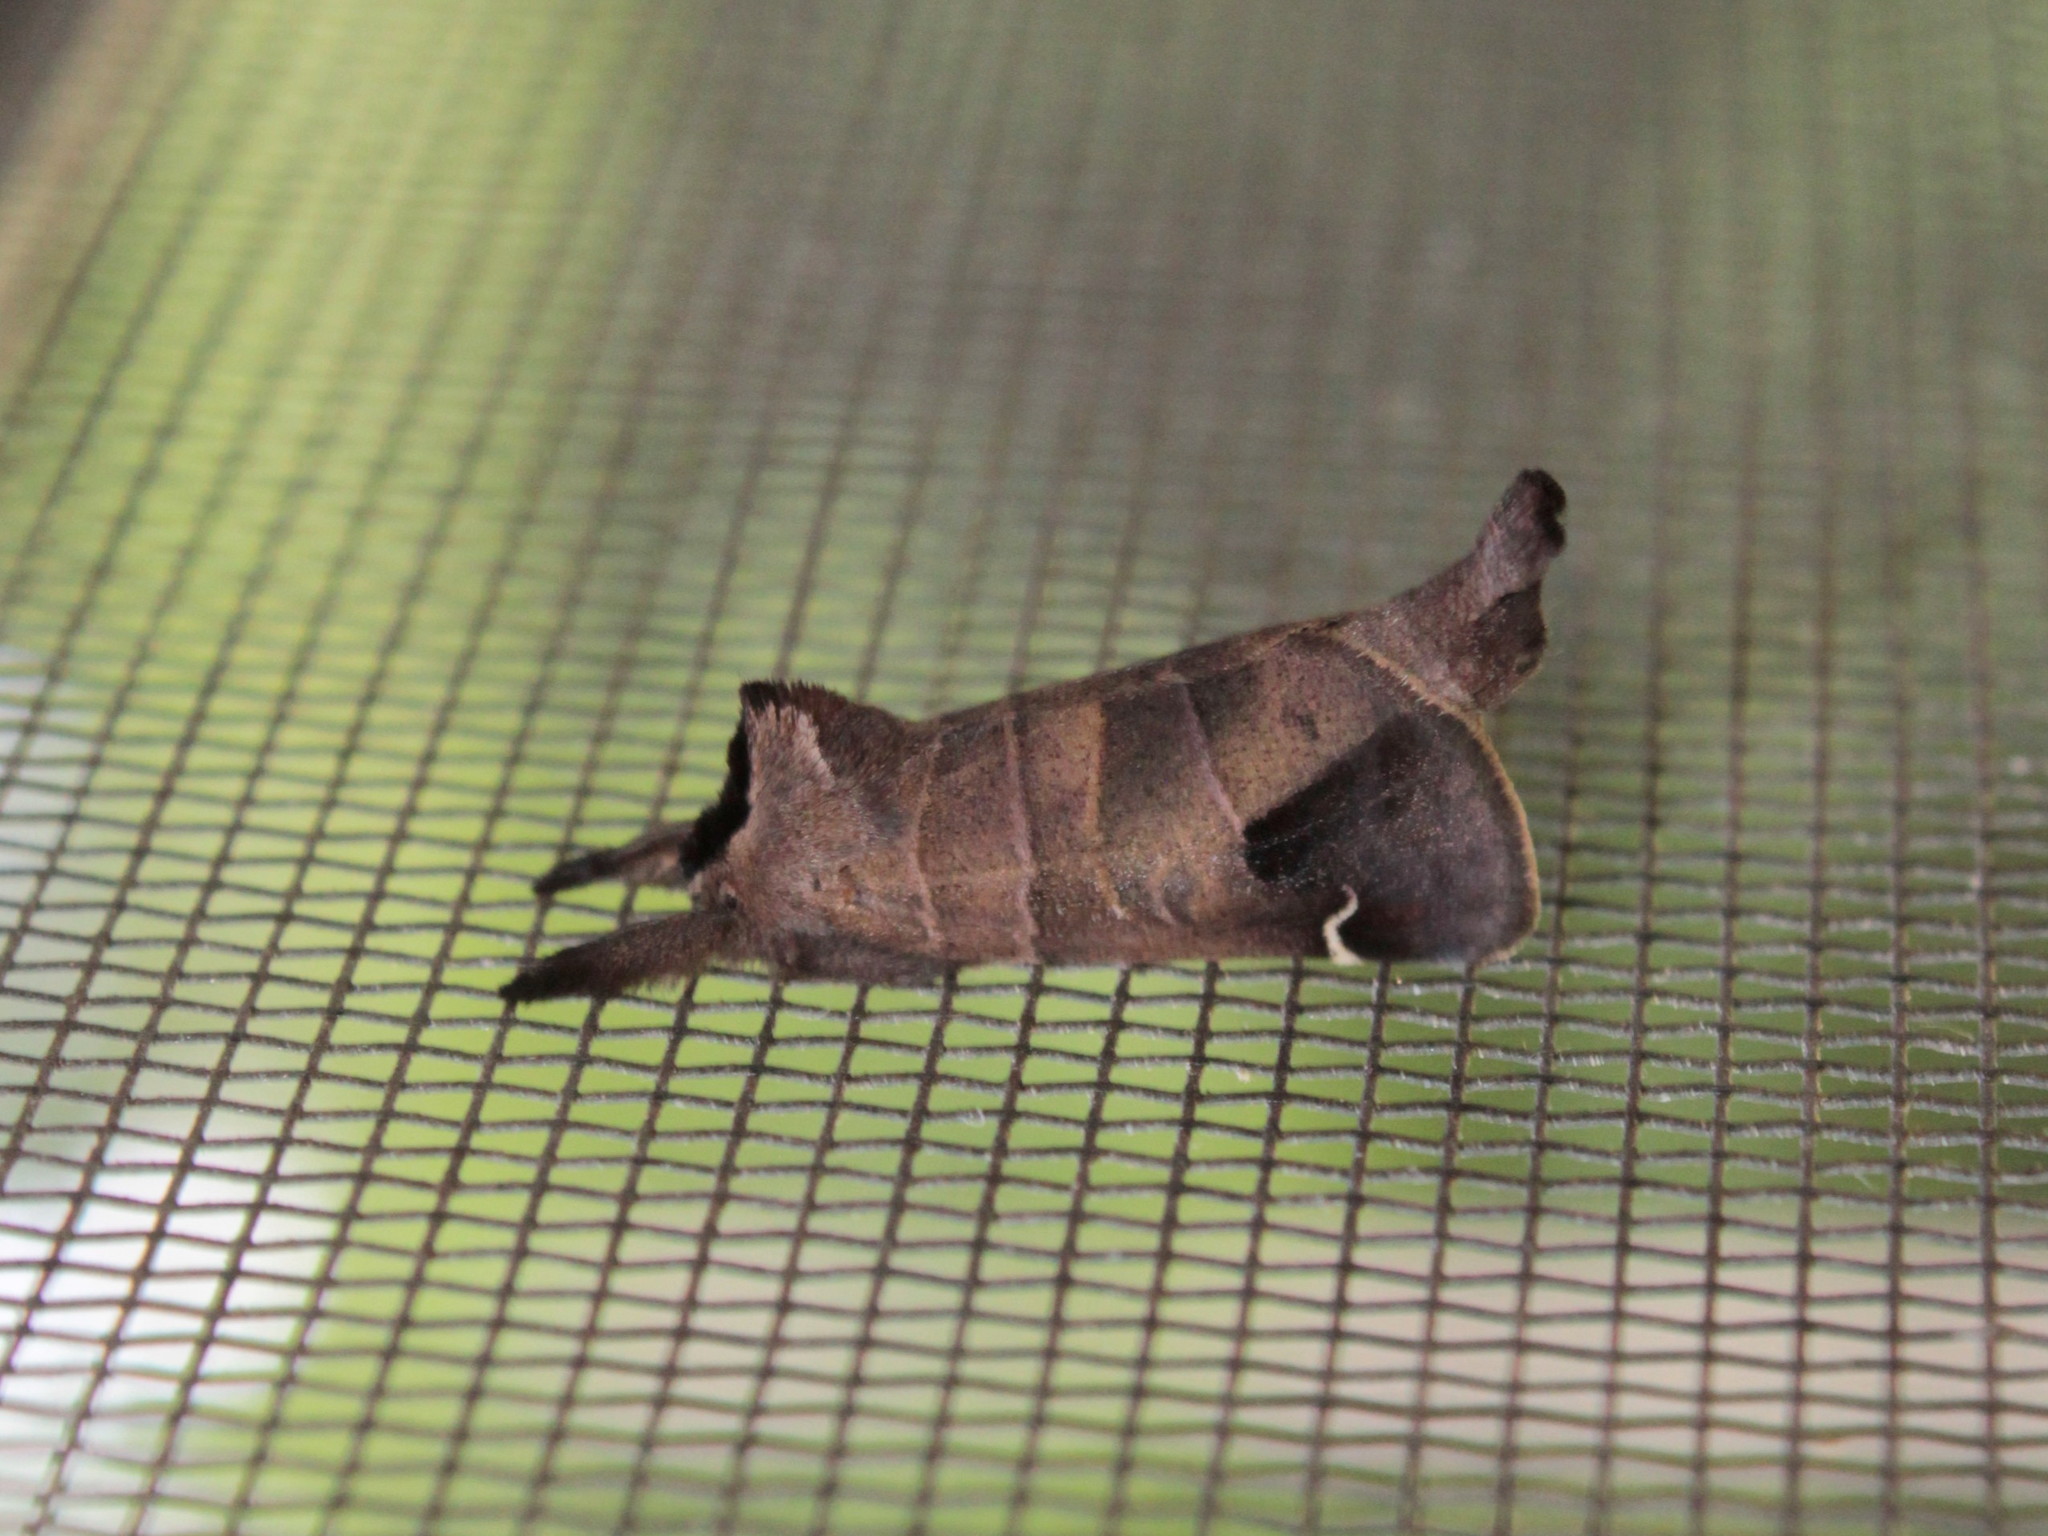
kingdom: Animalia
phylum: Arthropoda
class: Insecta
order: Lepidoptera
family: Notodontidae
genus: Clostera
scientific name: Clostera albosigma
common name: Sigmoid prominent
